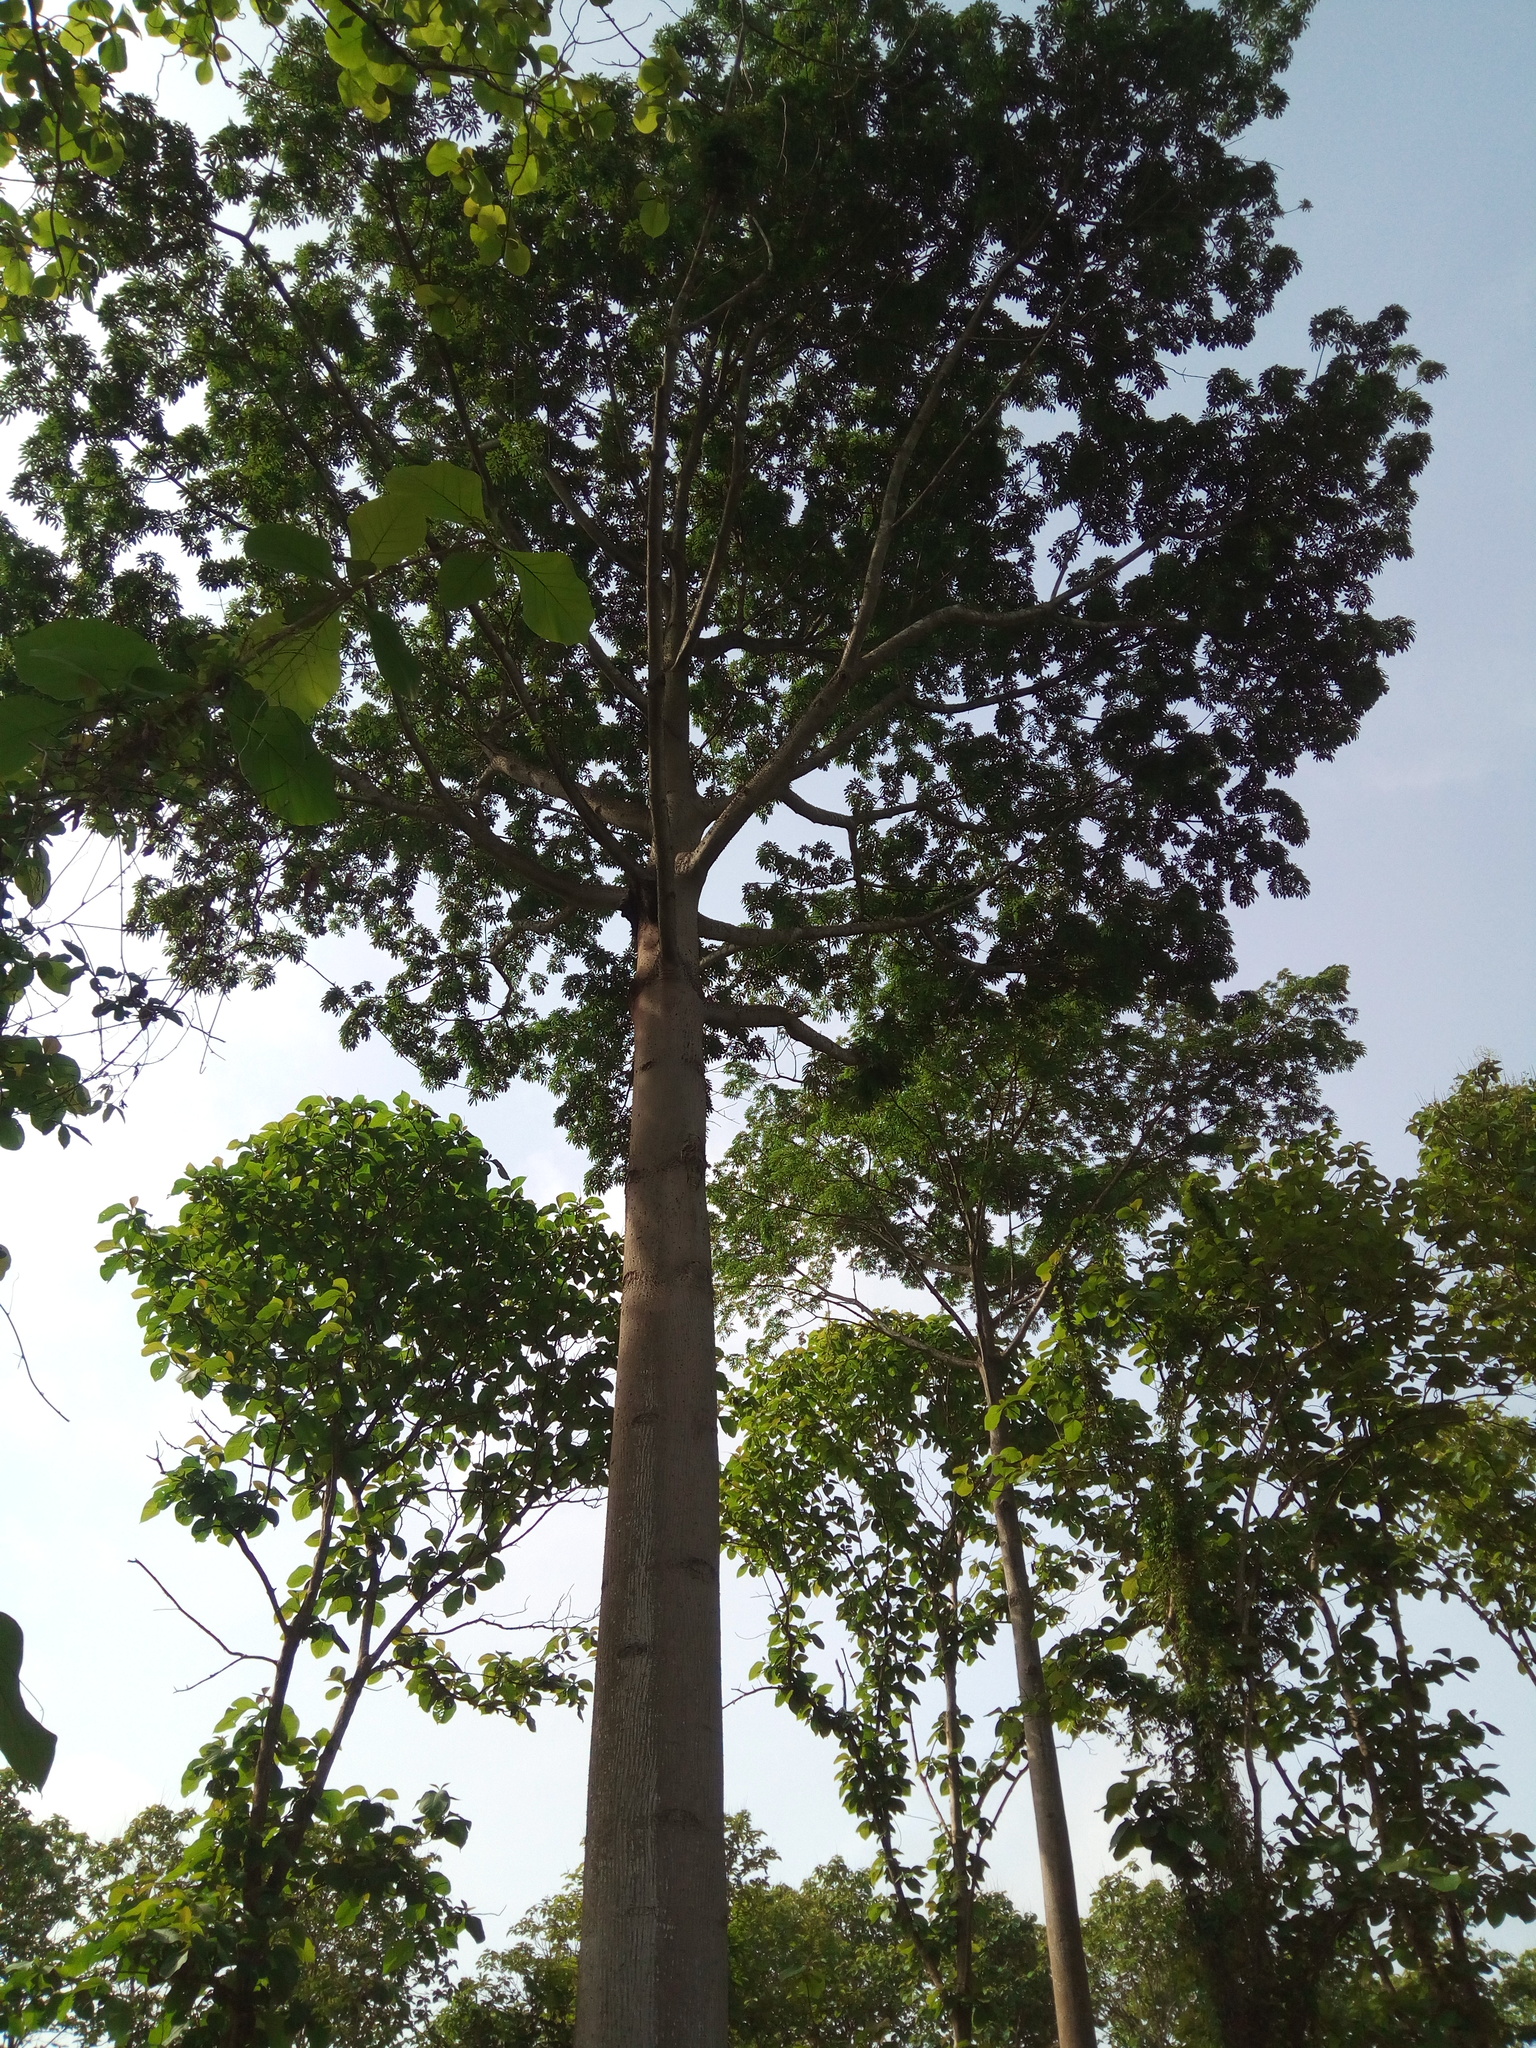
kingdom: Plantae
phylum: Tracheophyta
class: Magnoliopsida
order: Malvales
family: Malvaceae
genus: Ceiba
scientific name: Ceiba pentandra
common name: Kapok
